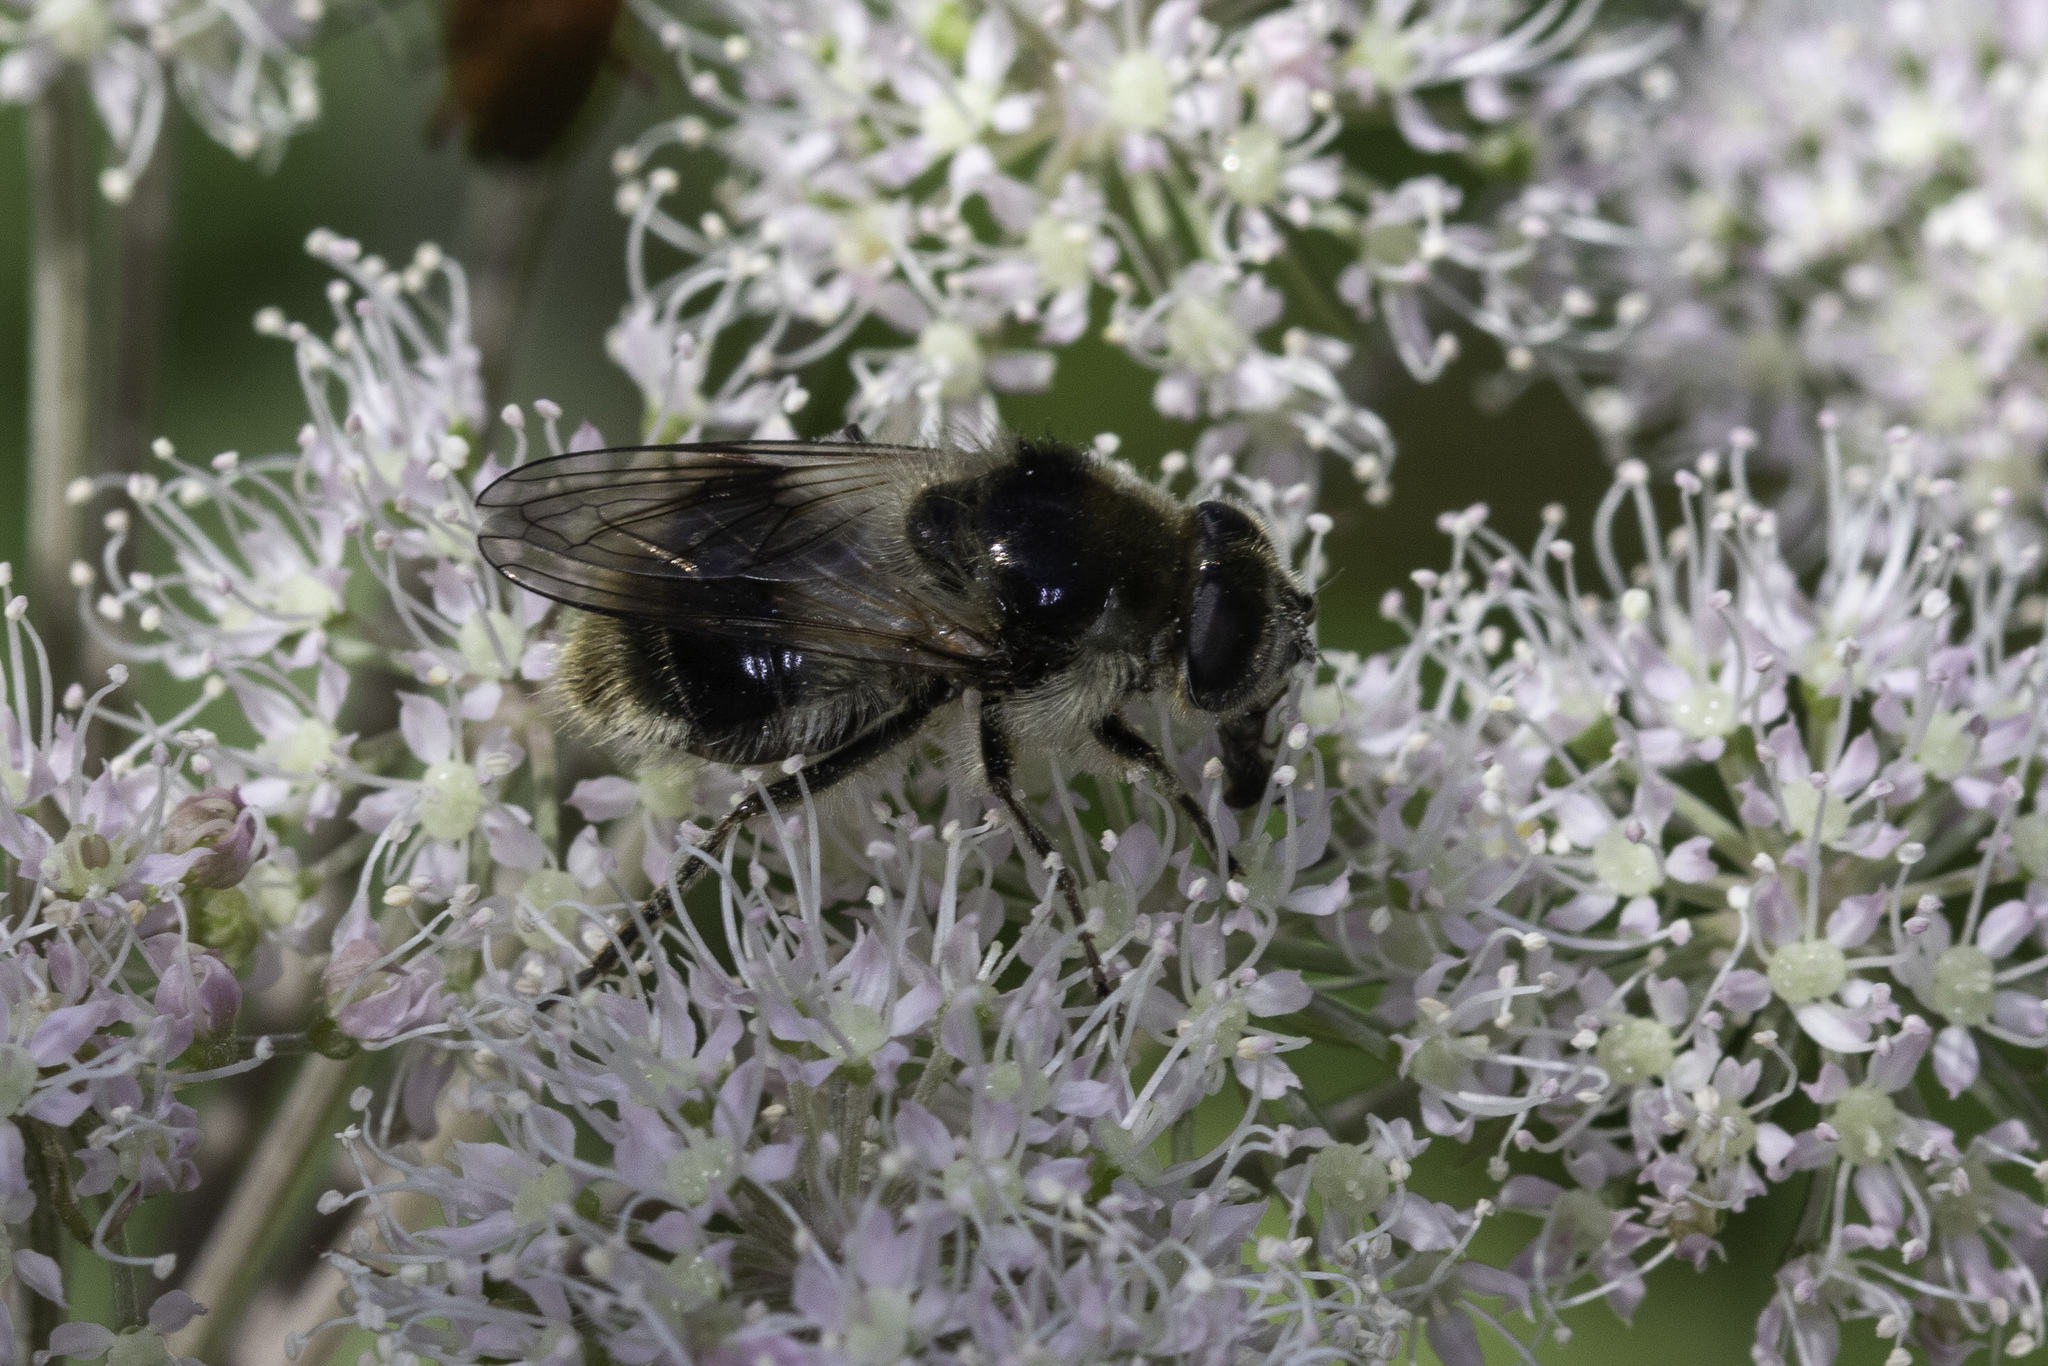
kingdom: Animalia
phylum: Arthropoda
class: Insecta
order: Diptera
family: Syrphidae
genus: Cheilosia
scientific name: Cheilosia illustrata
